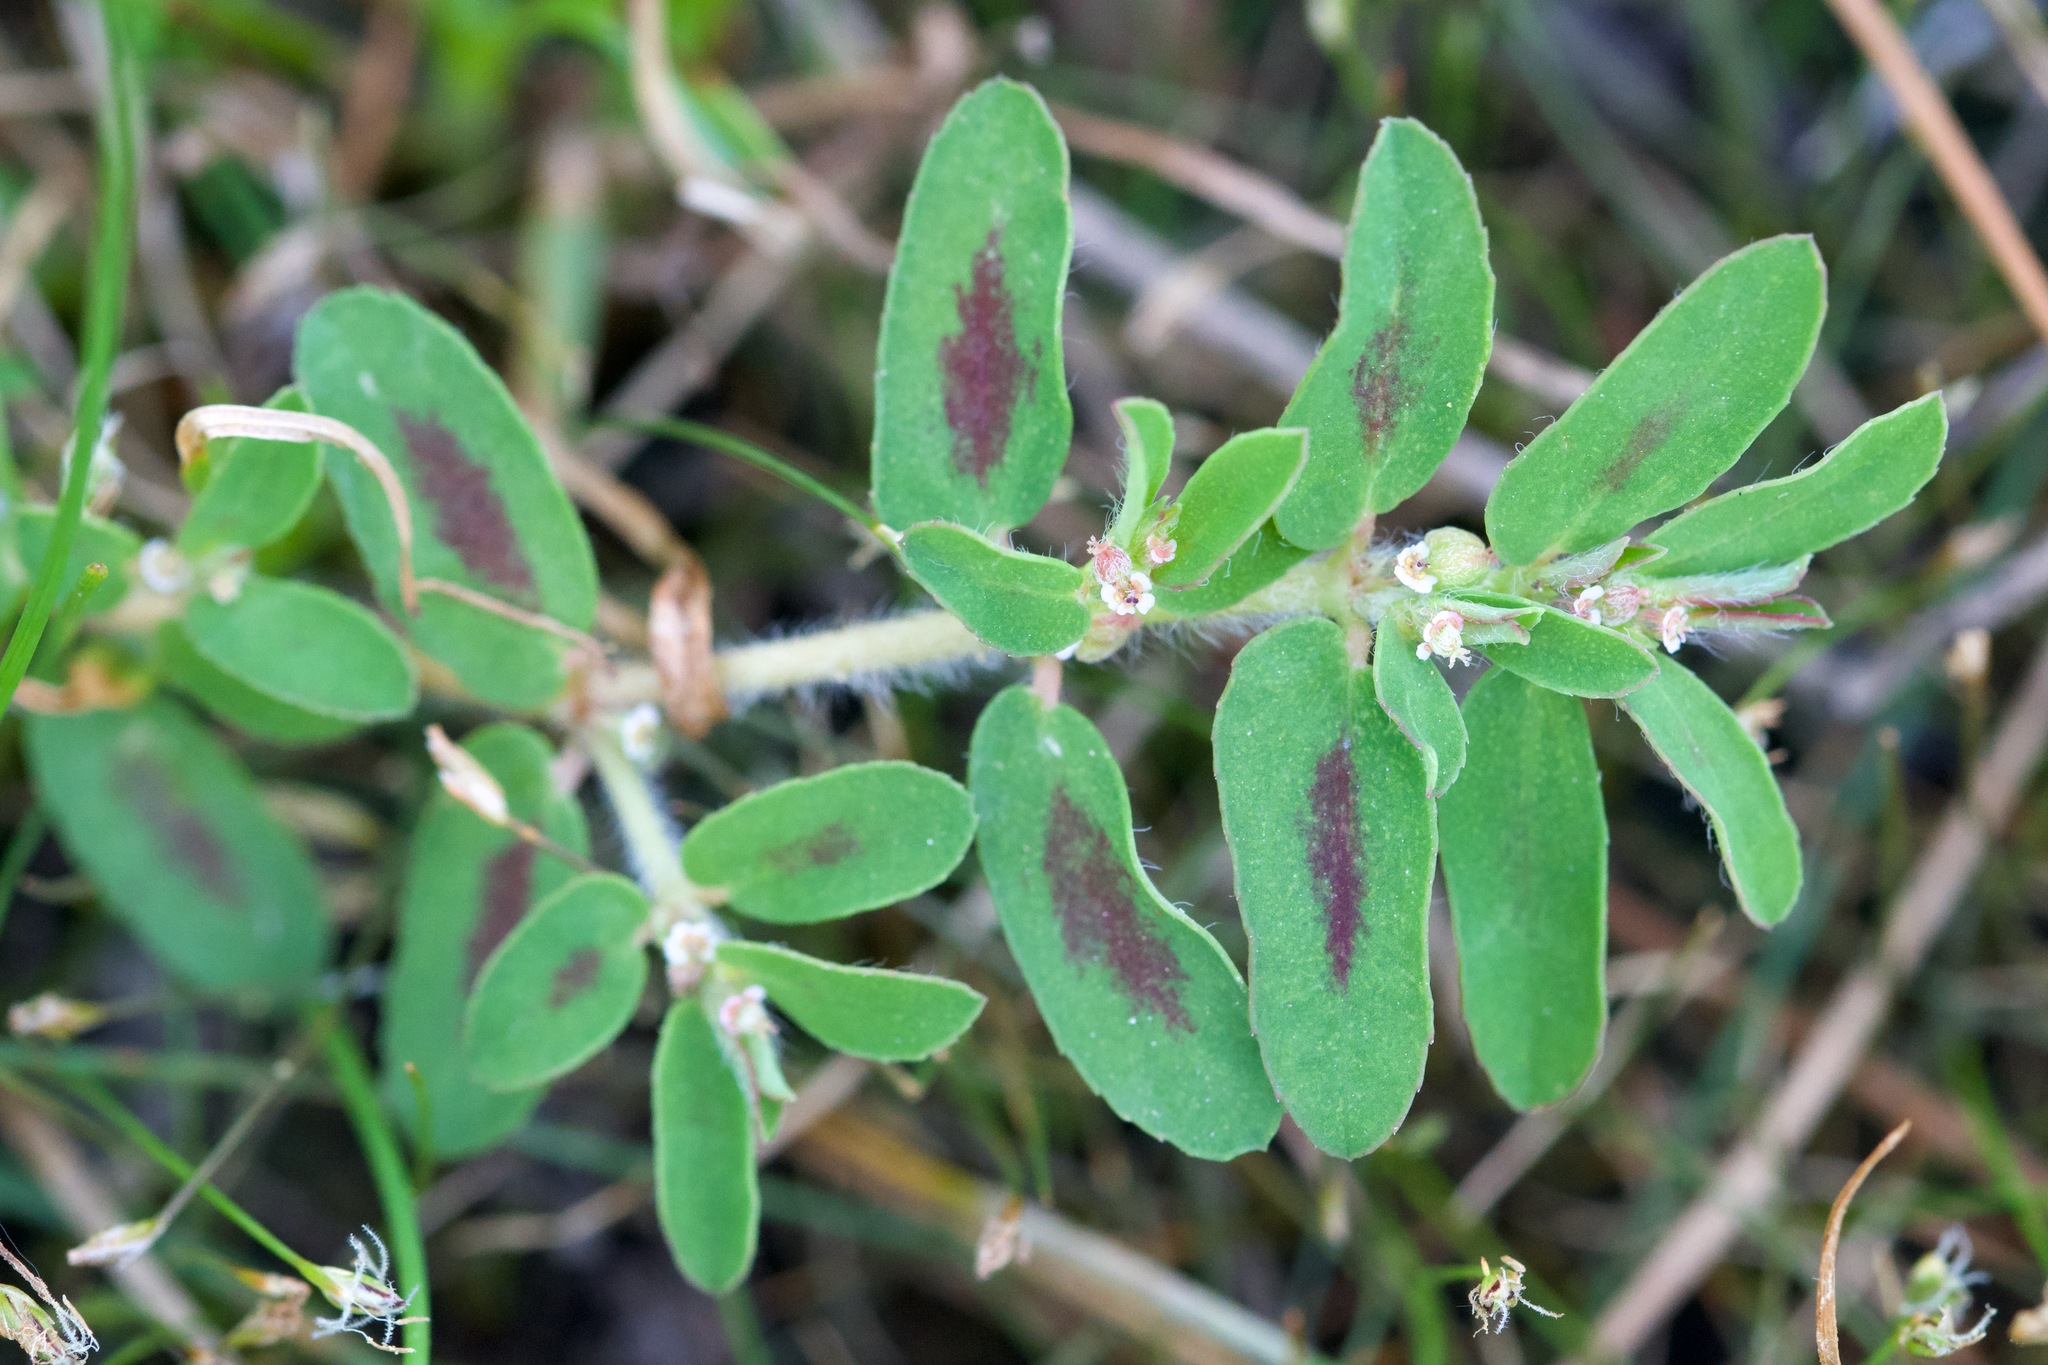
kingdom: Plantae
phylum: Tracheophyta
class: Magnoliopsida
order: Malpighiales
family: Euphorbiaceae
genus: Euphorbia
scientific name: Euphorbia maculata
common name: Spotted spurge
